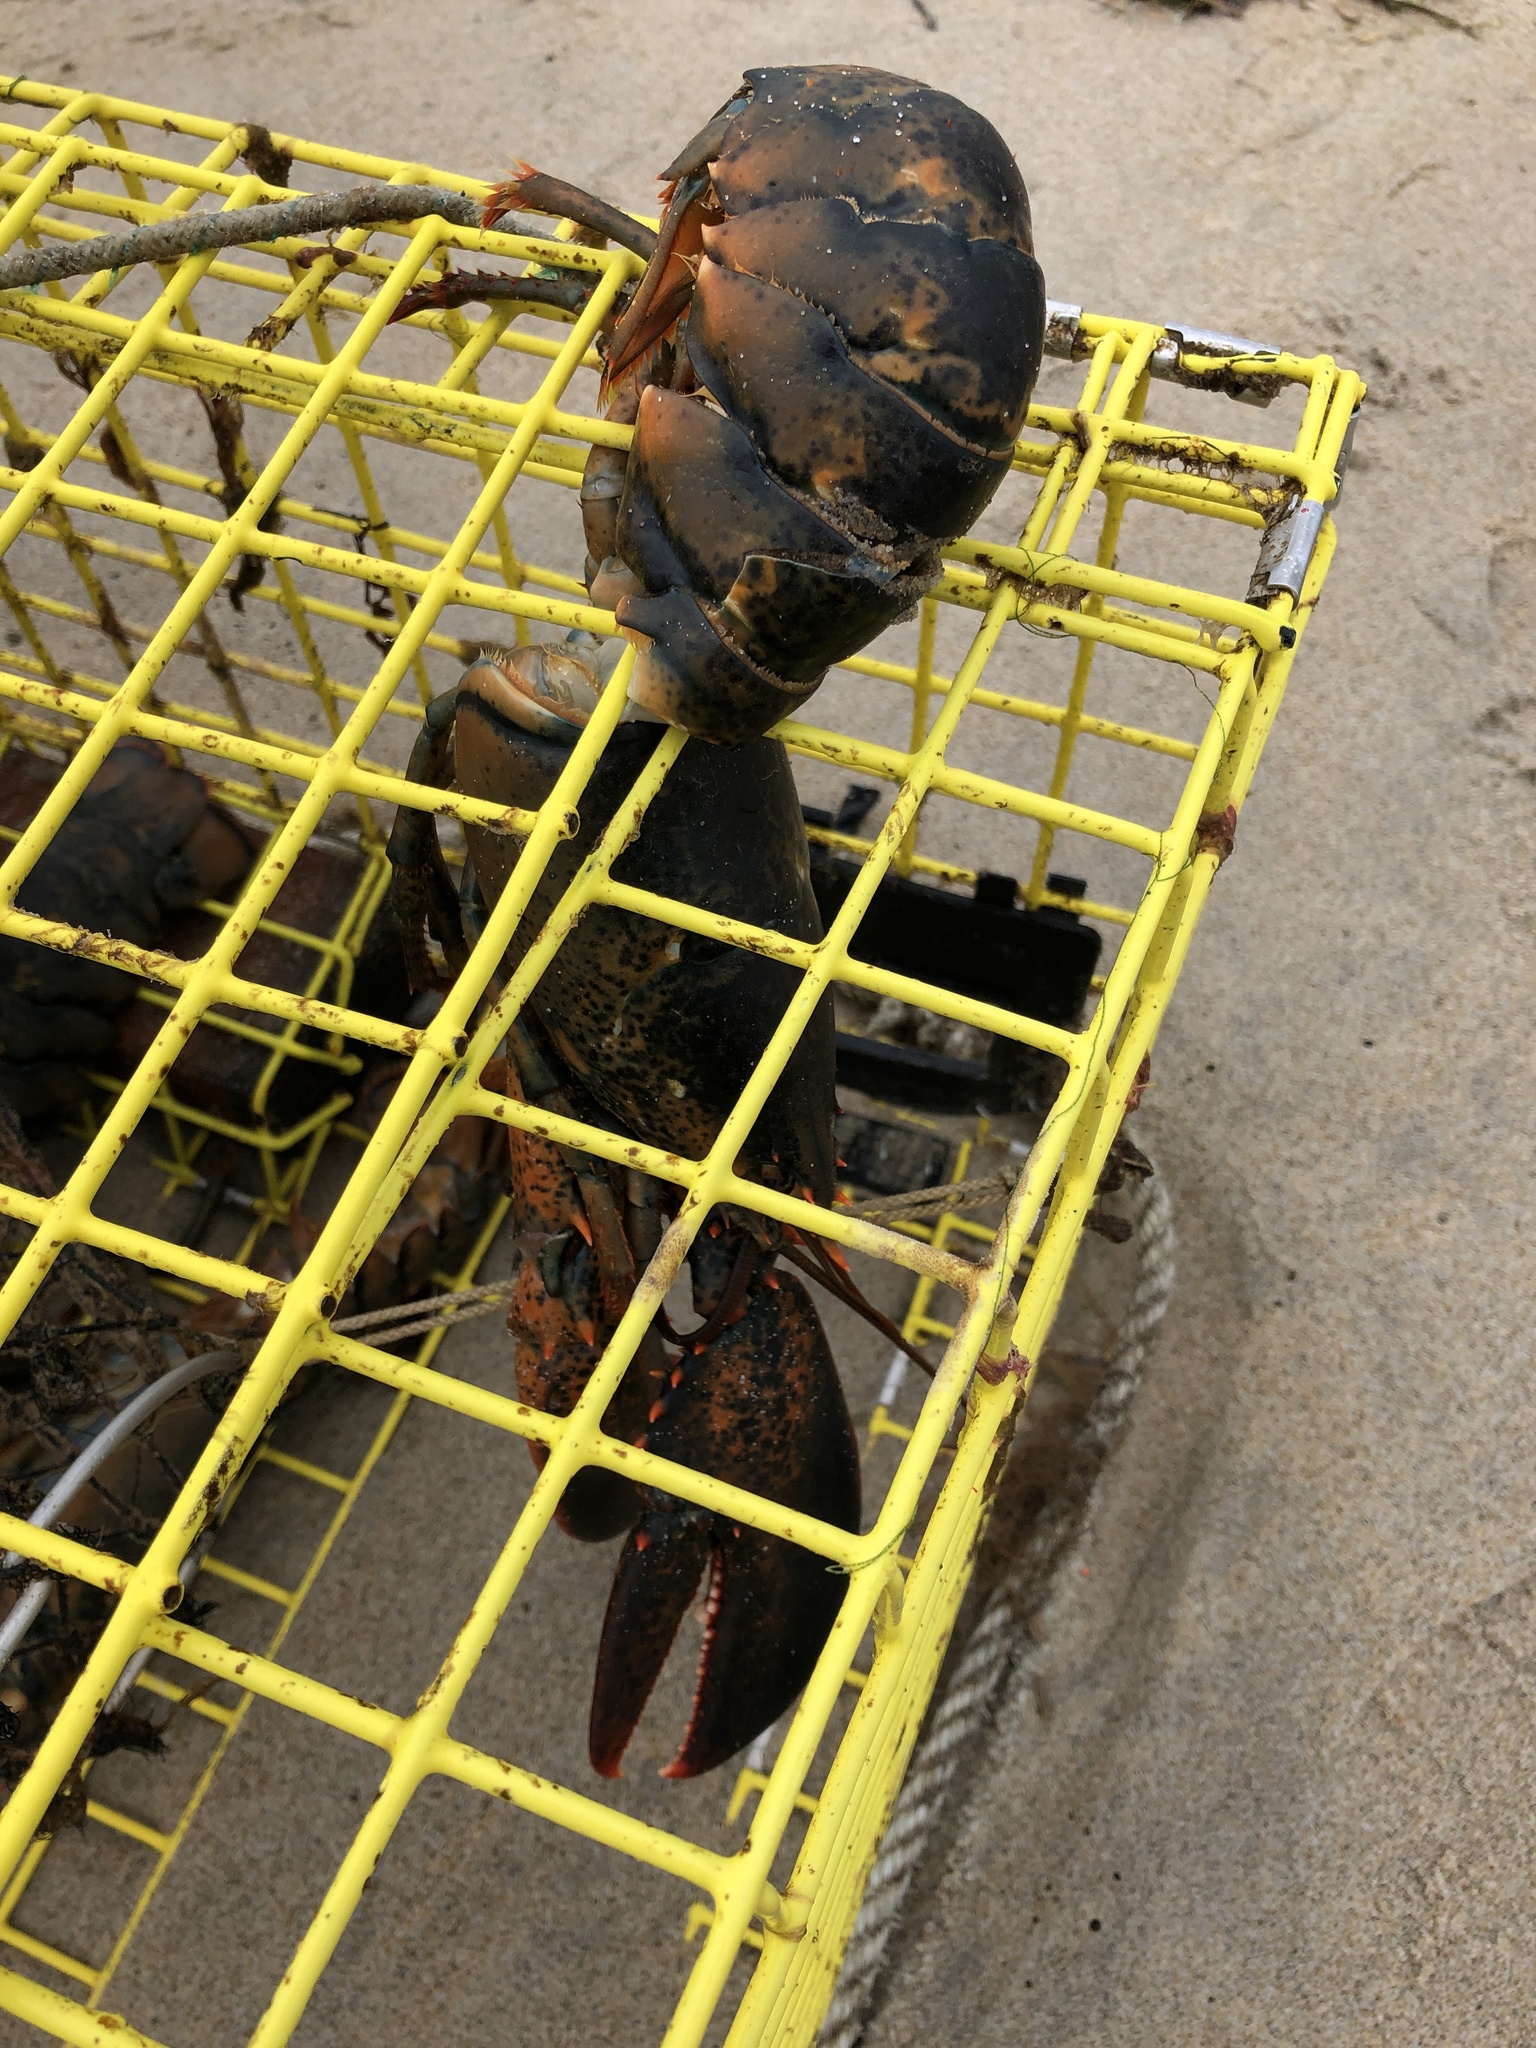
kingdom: Animalia
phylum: Arthropoda
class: Malacostraca
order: Decapoda
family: Nephropidae
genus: Homarus
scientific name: Homarus americanus
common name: American lobster
